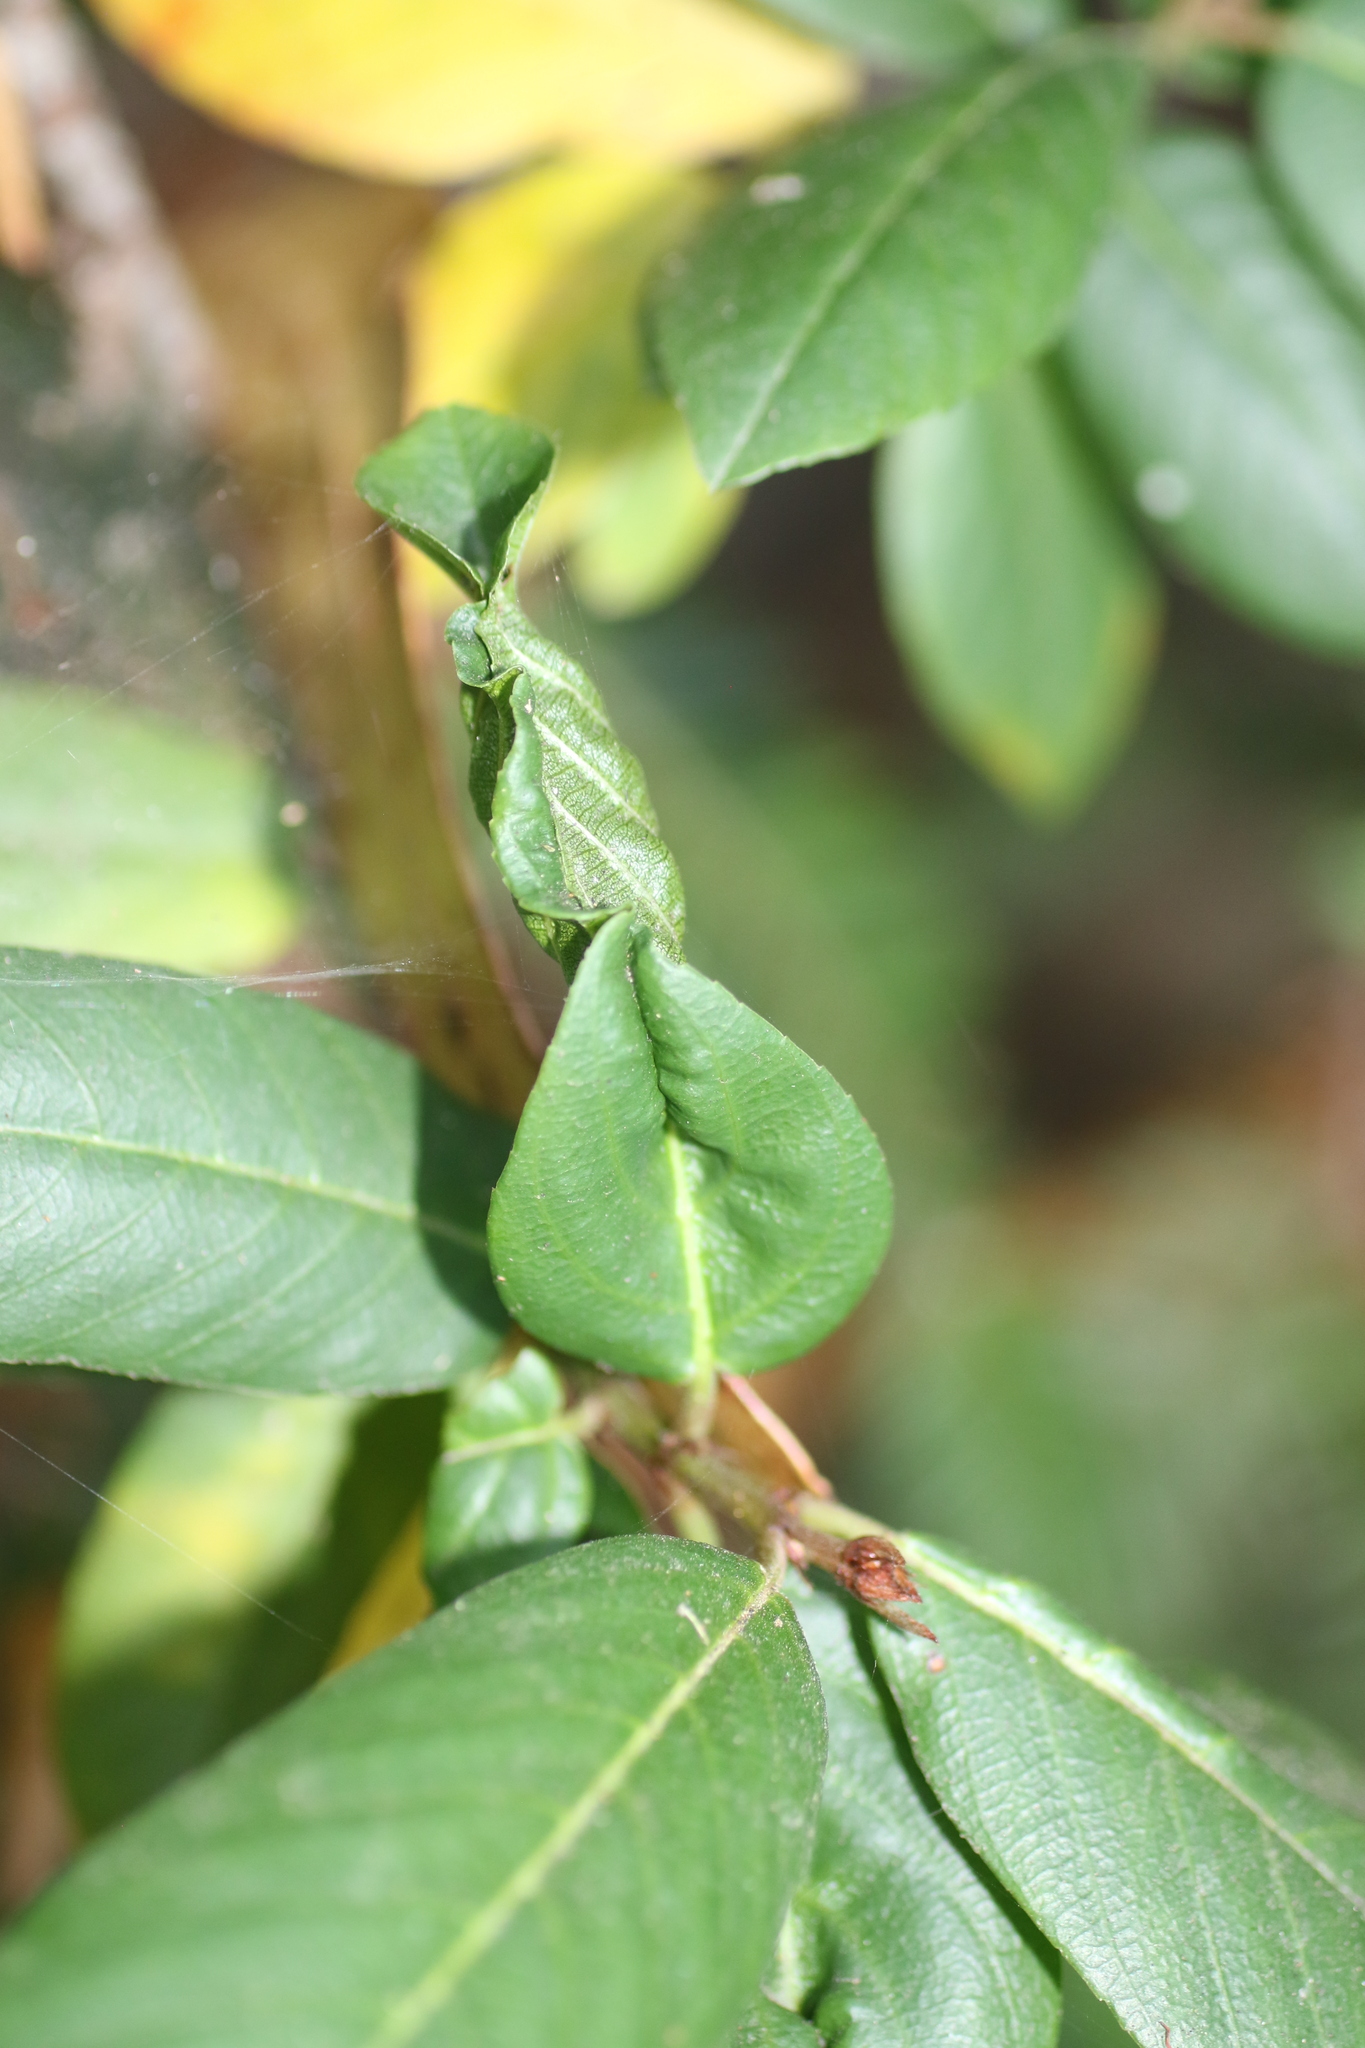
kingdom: Animalia
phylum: Arthropoda
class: Insecta
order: Lepidoptera
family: Cosmopterigidae
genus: Sorhagenia
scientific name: Sorhagenia nimbosus
